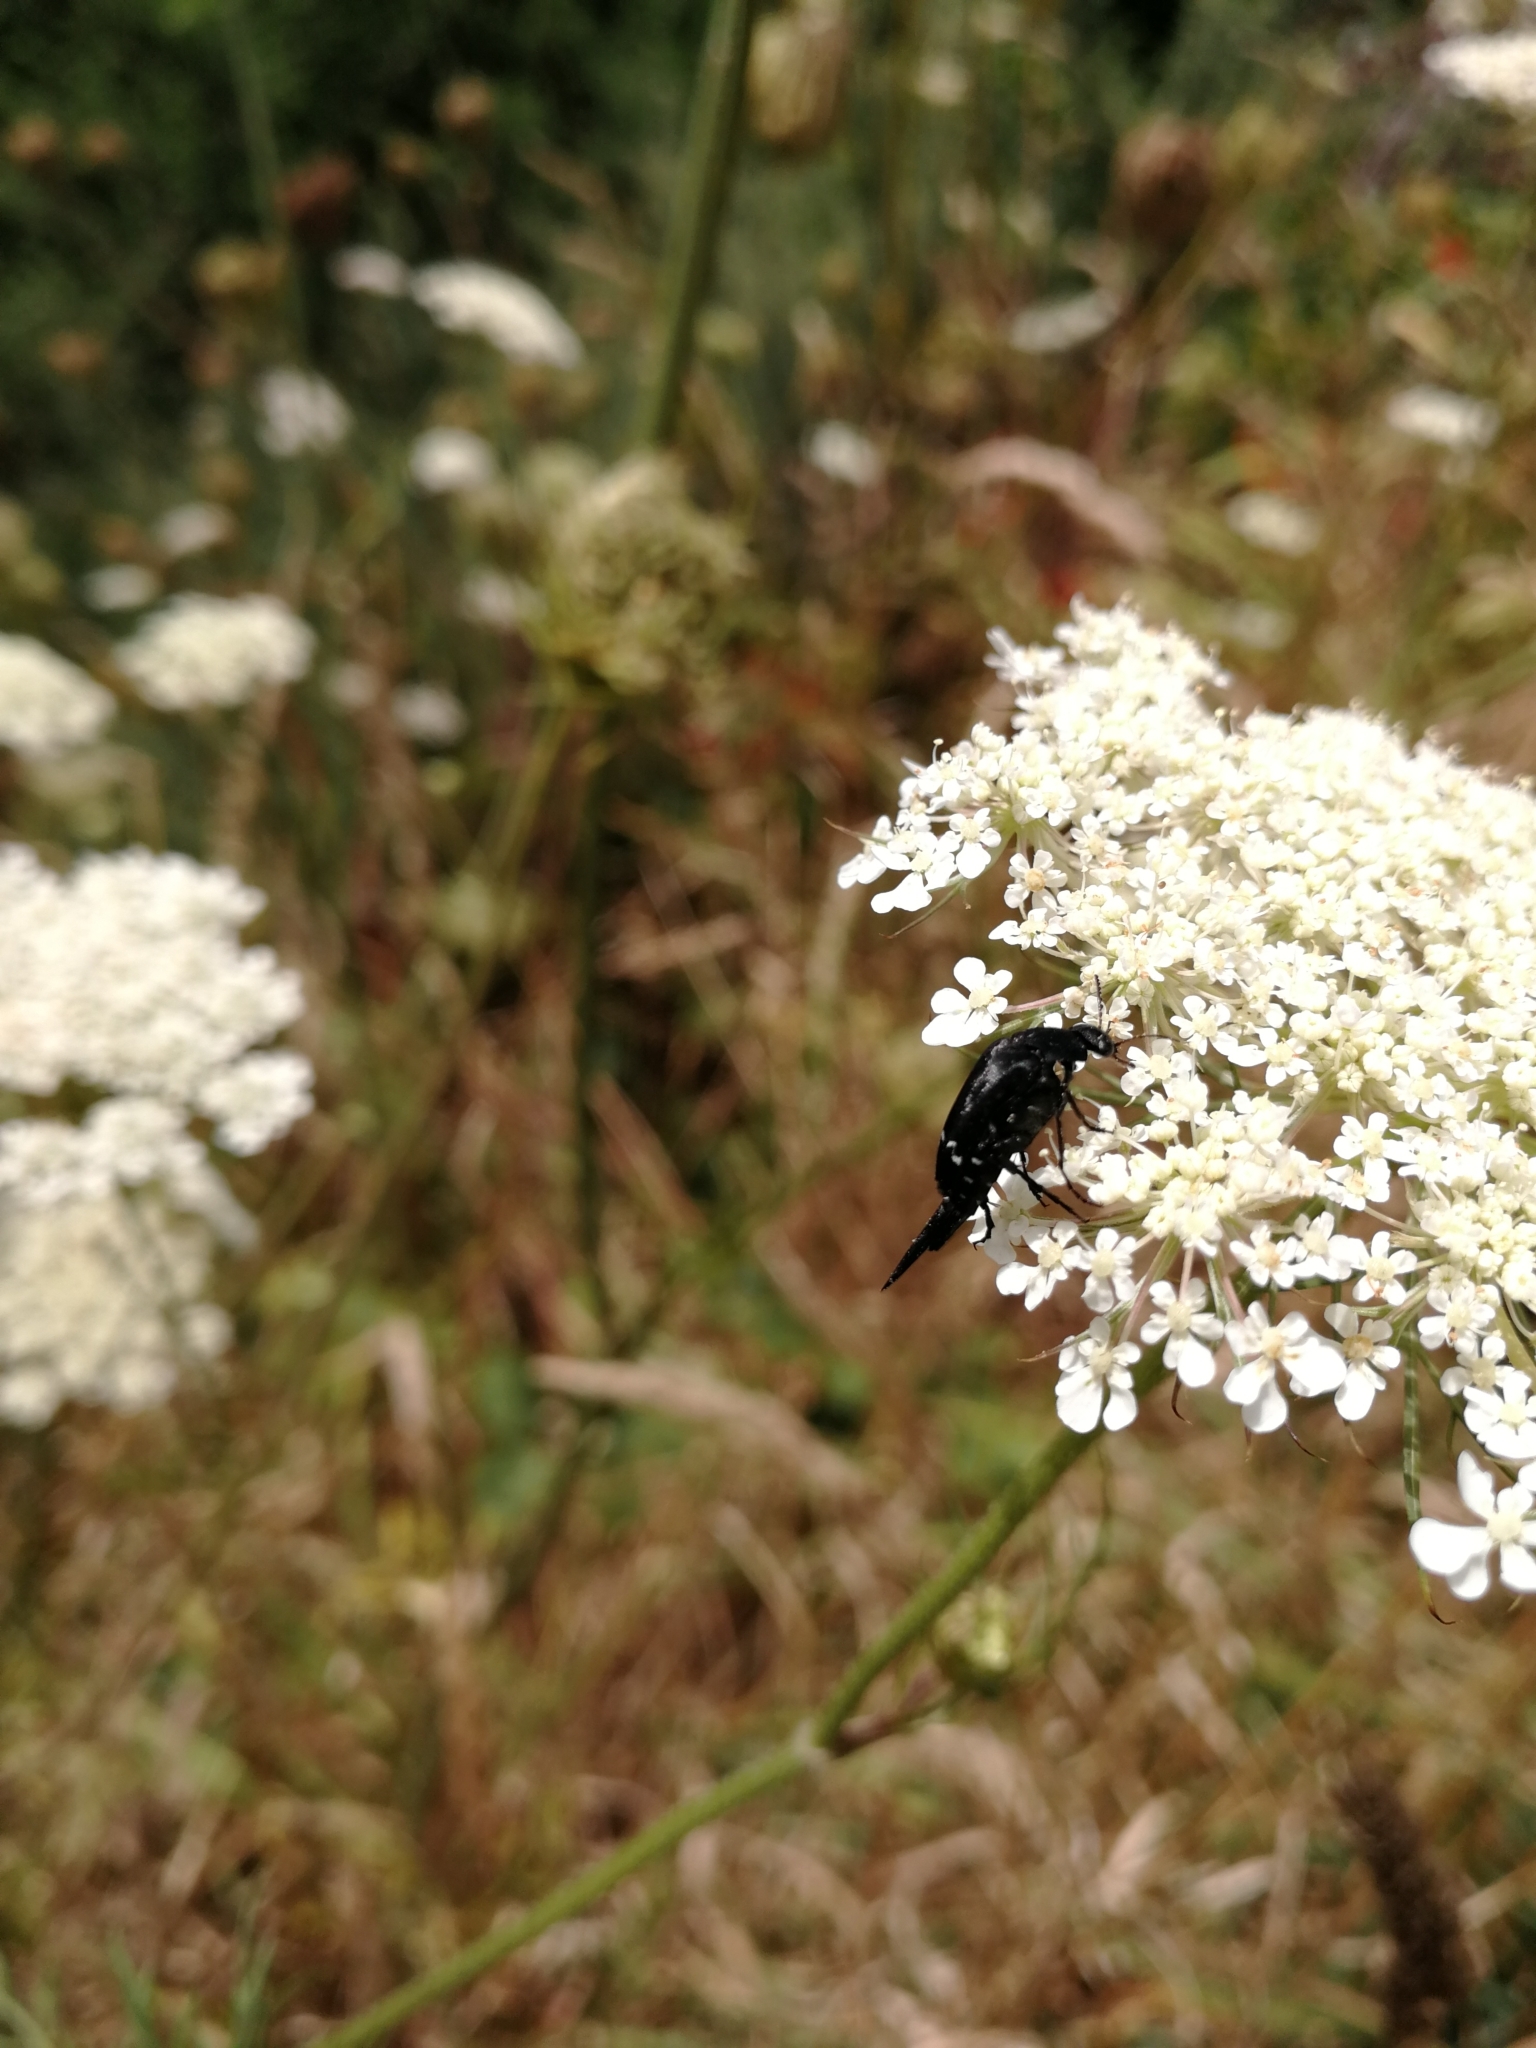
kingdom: Animalia
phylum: Arthropoda
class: Insecta
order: Coleoptera
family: Mordellidae
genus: Hoshihananomia
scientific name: Hoshihananomia
